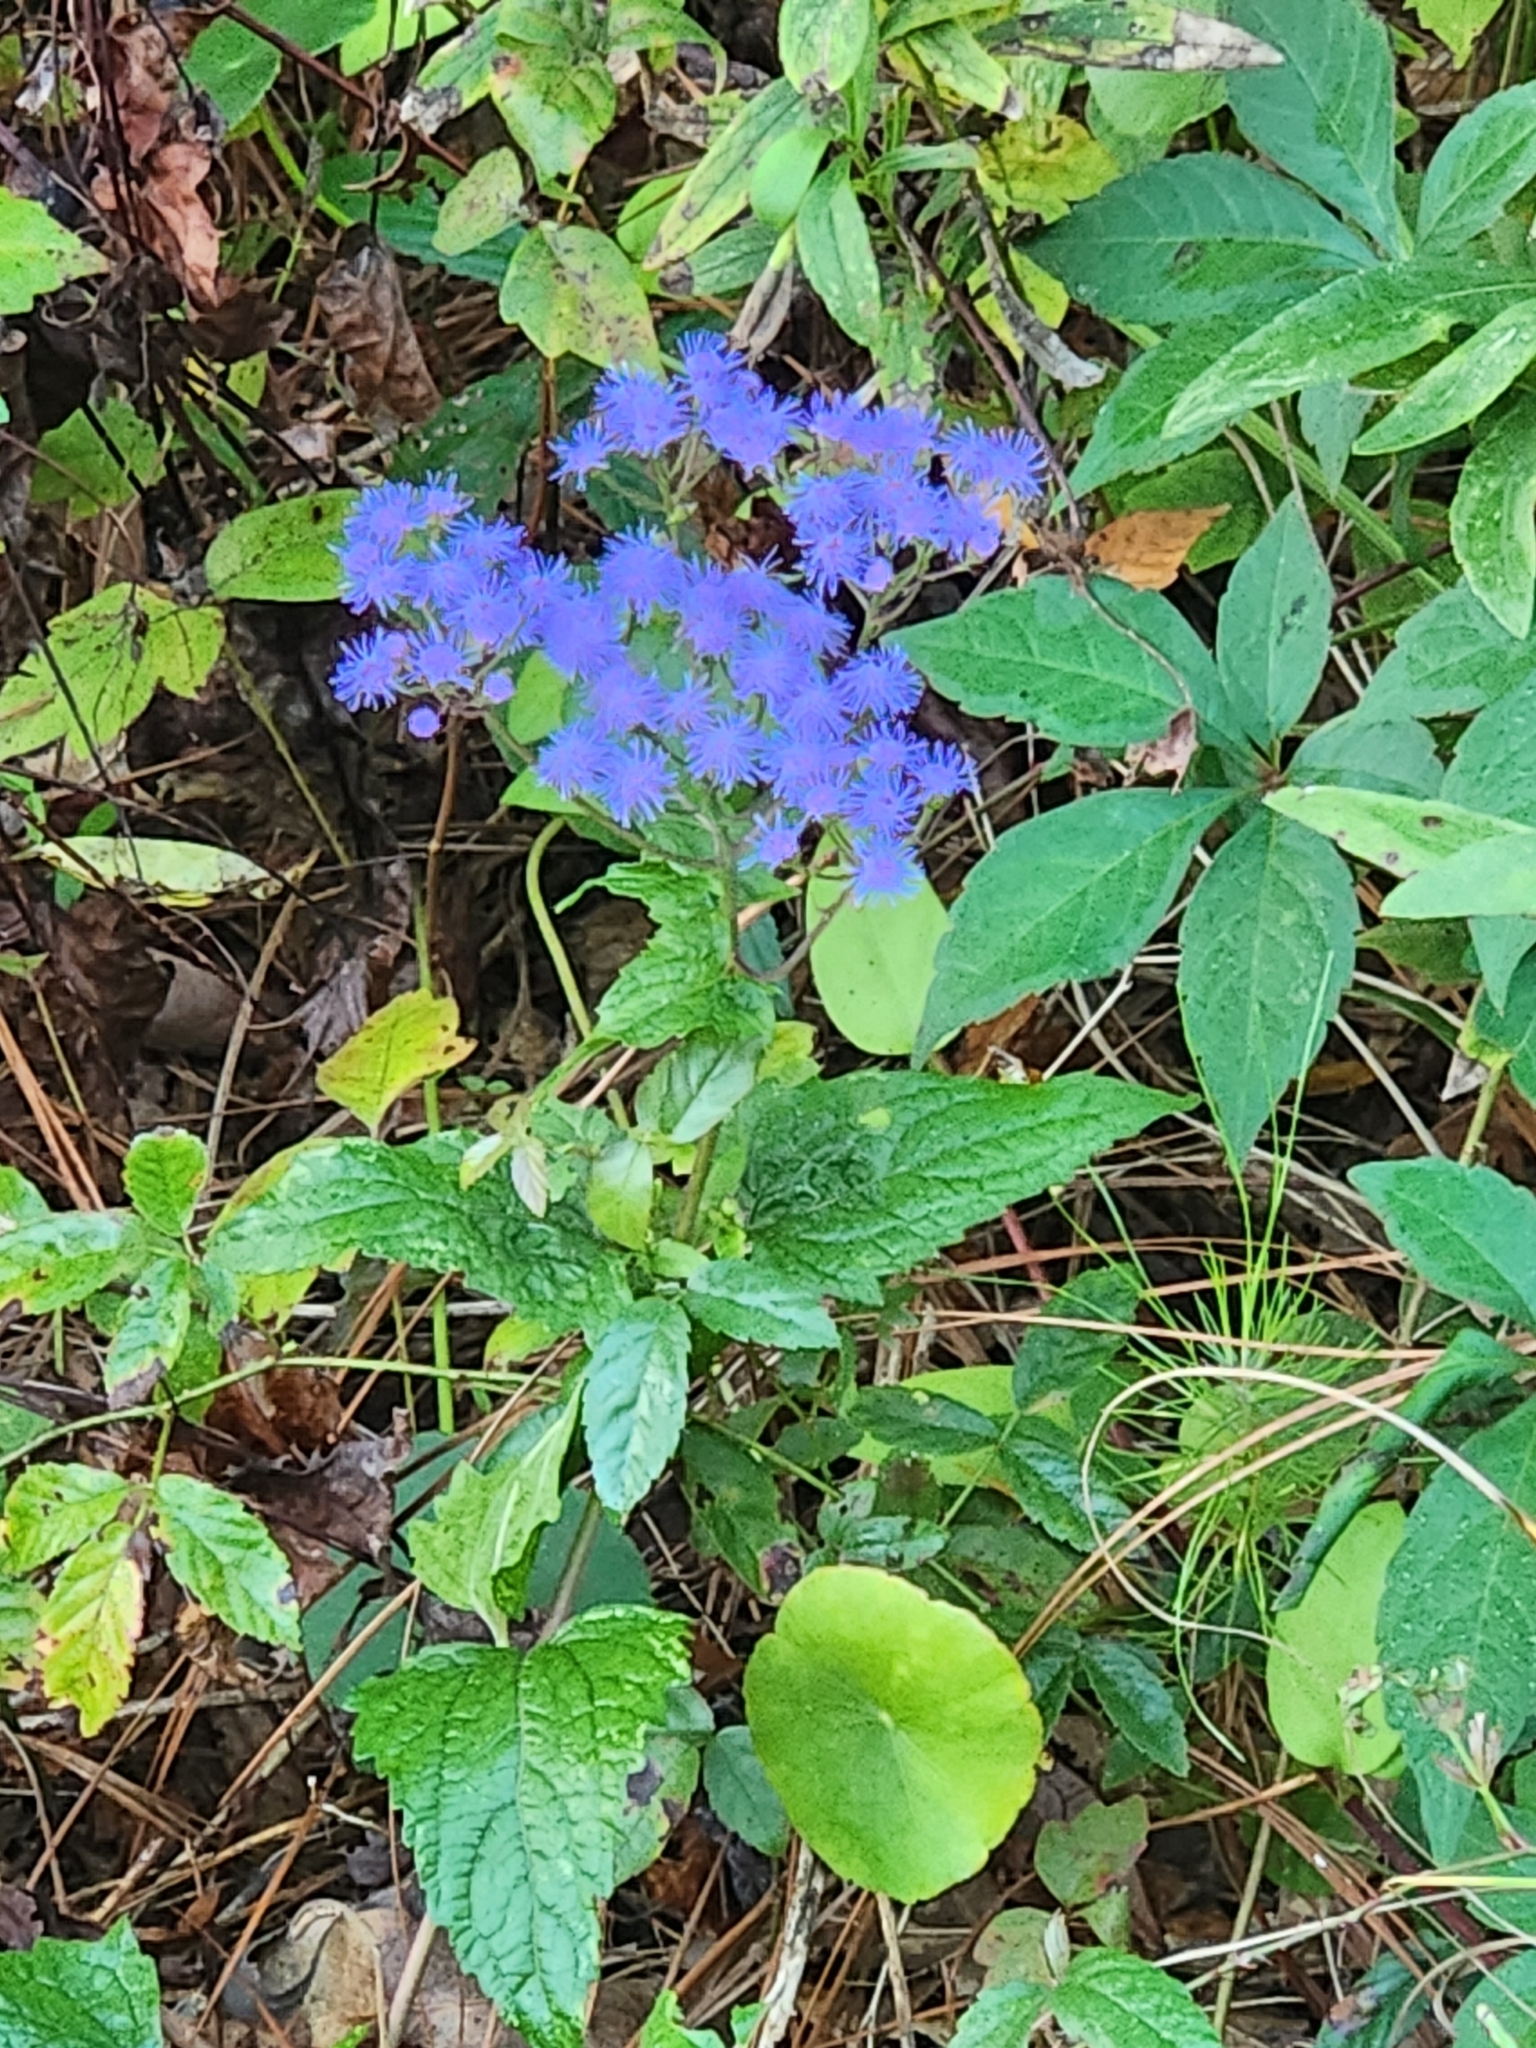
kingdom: Plantae
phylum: Tracheophyta
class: Magnoliopsida
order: Asterales
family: Asteraceae
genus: Conoclinium
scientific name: Conoclinium coelestinum
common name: Blue mistflower
